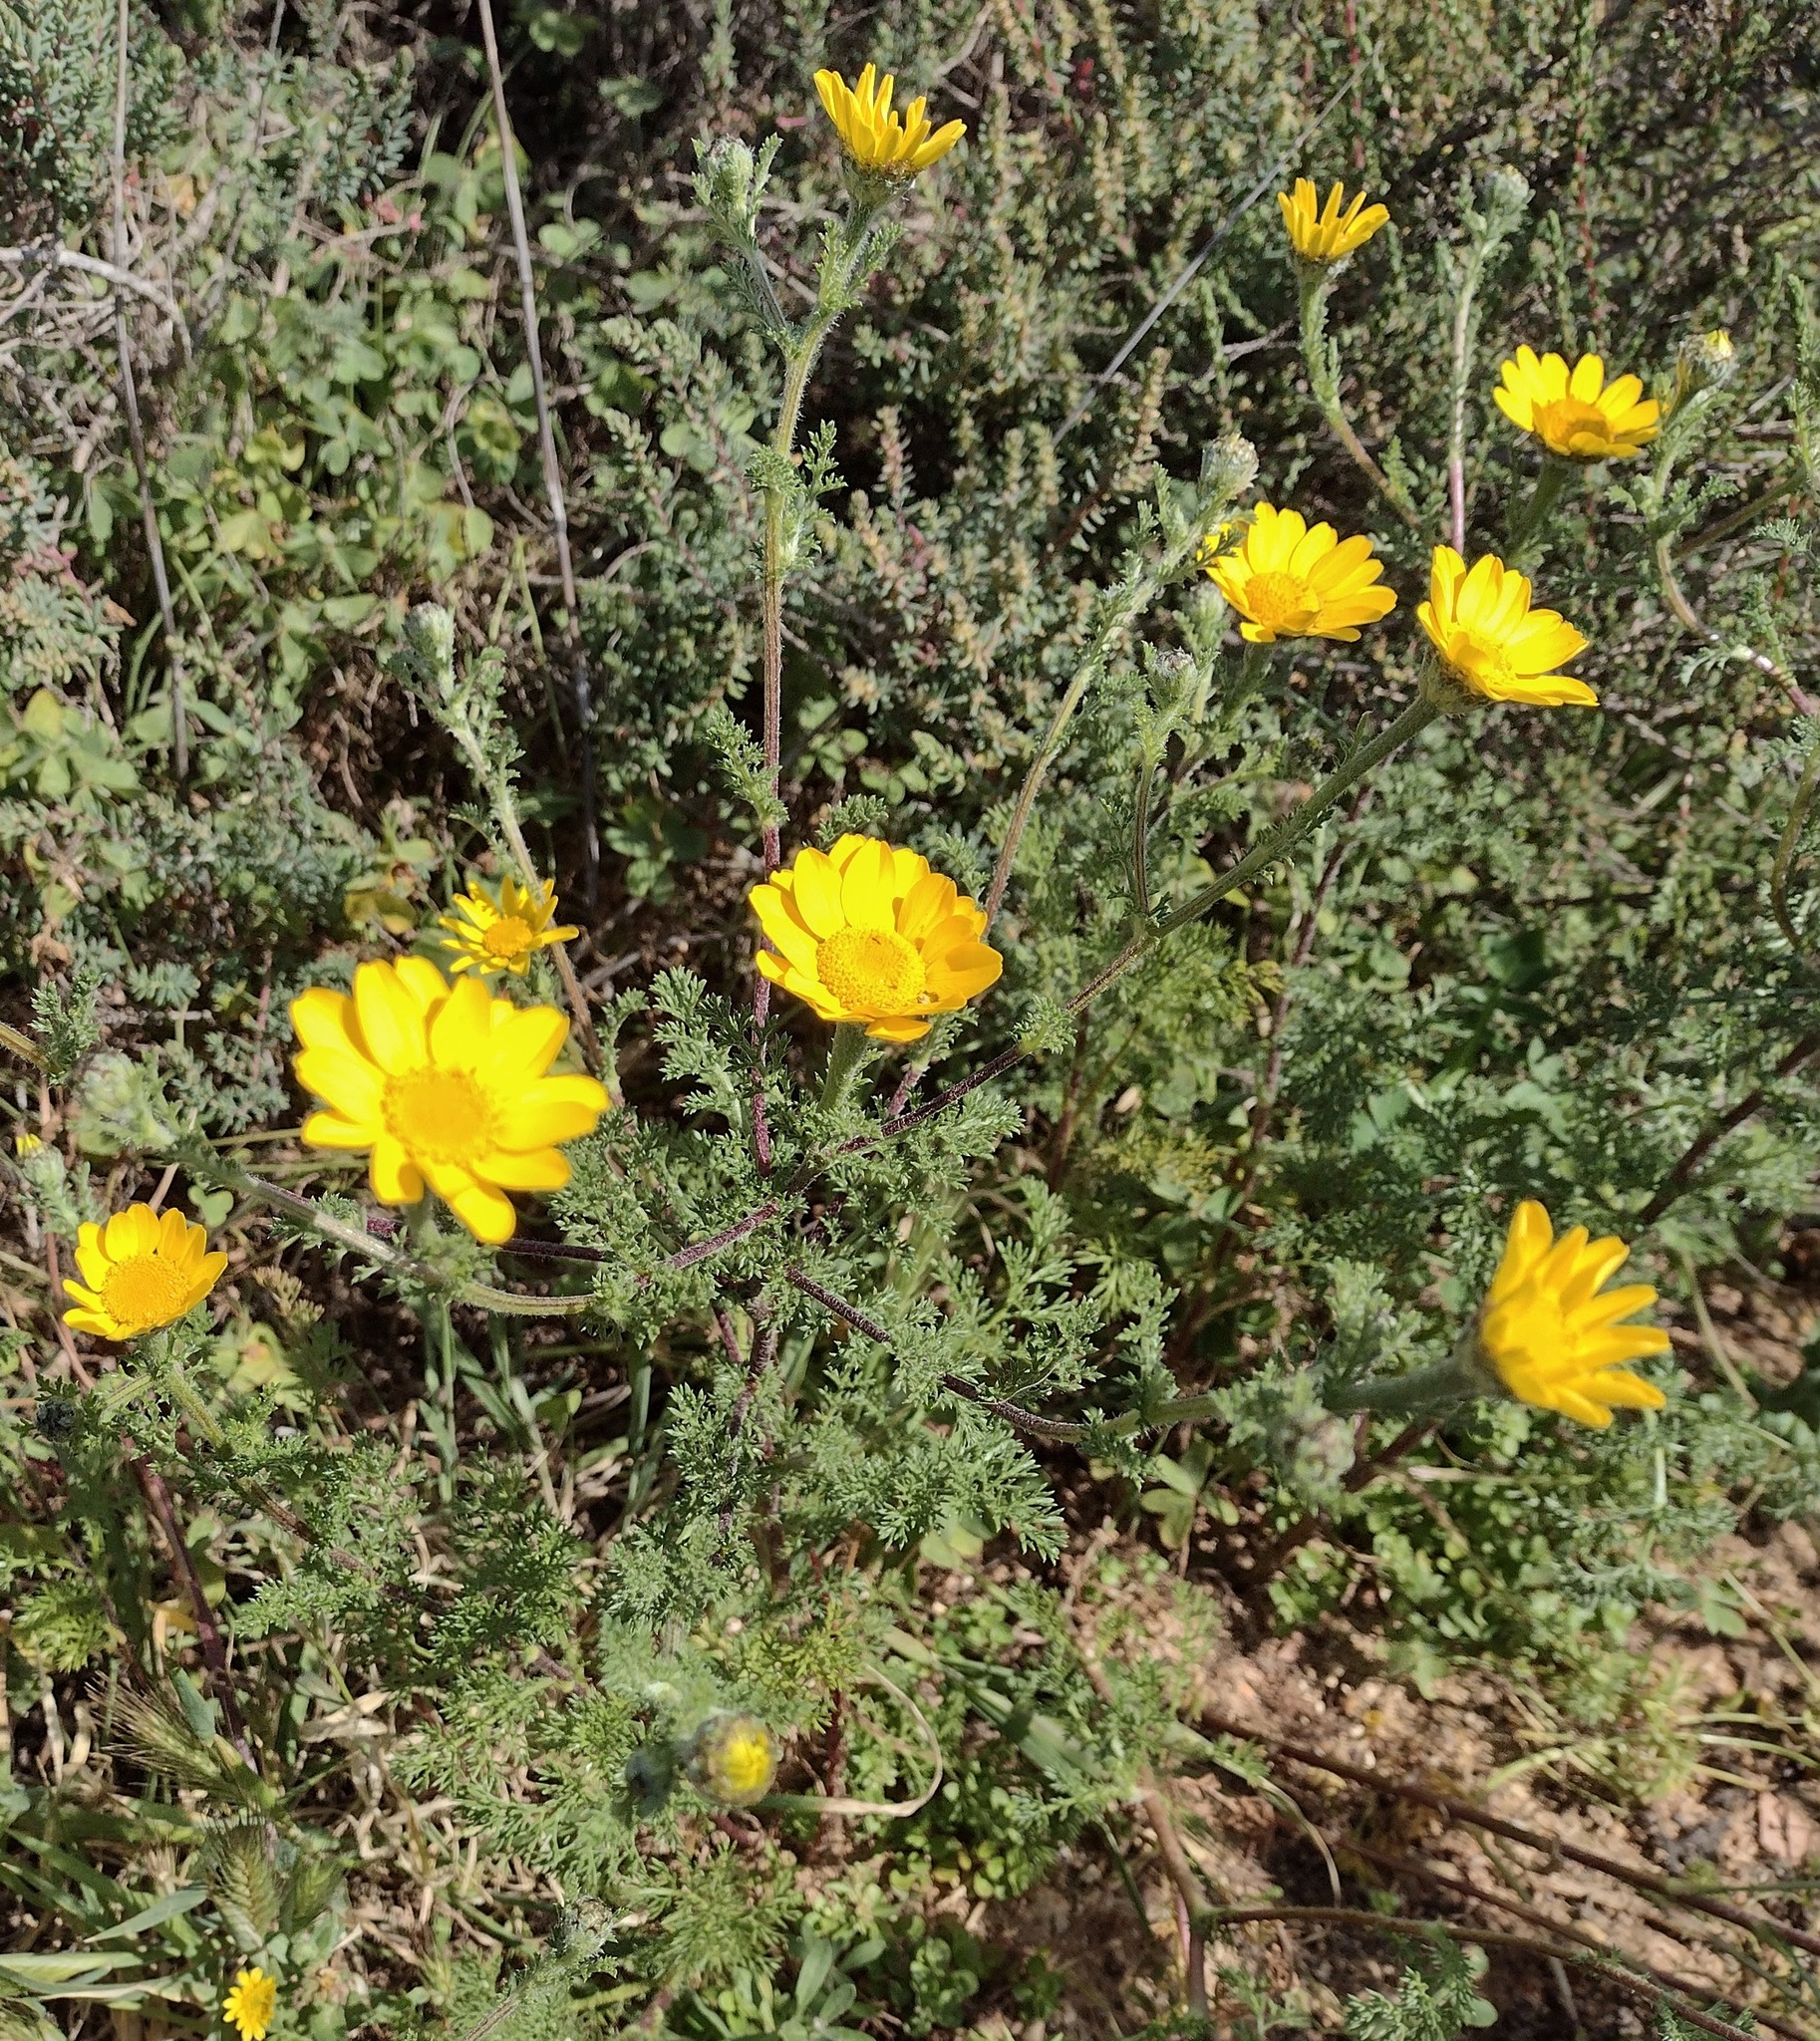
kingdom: Plantae
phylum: Tracheophyta
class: Magnoliopsida
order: Asterales
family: Asteraceae
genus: Anacyclus
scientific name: Anacyclus radiatus
